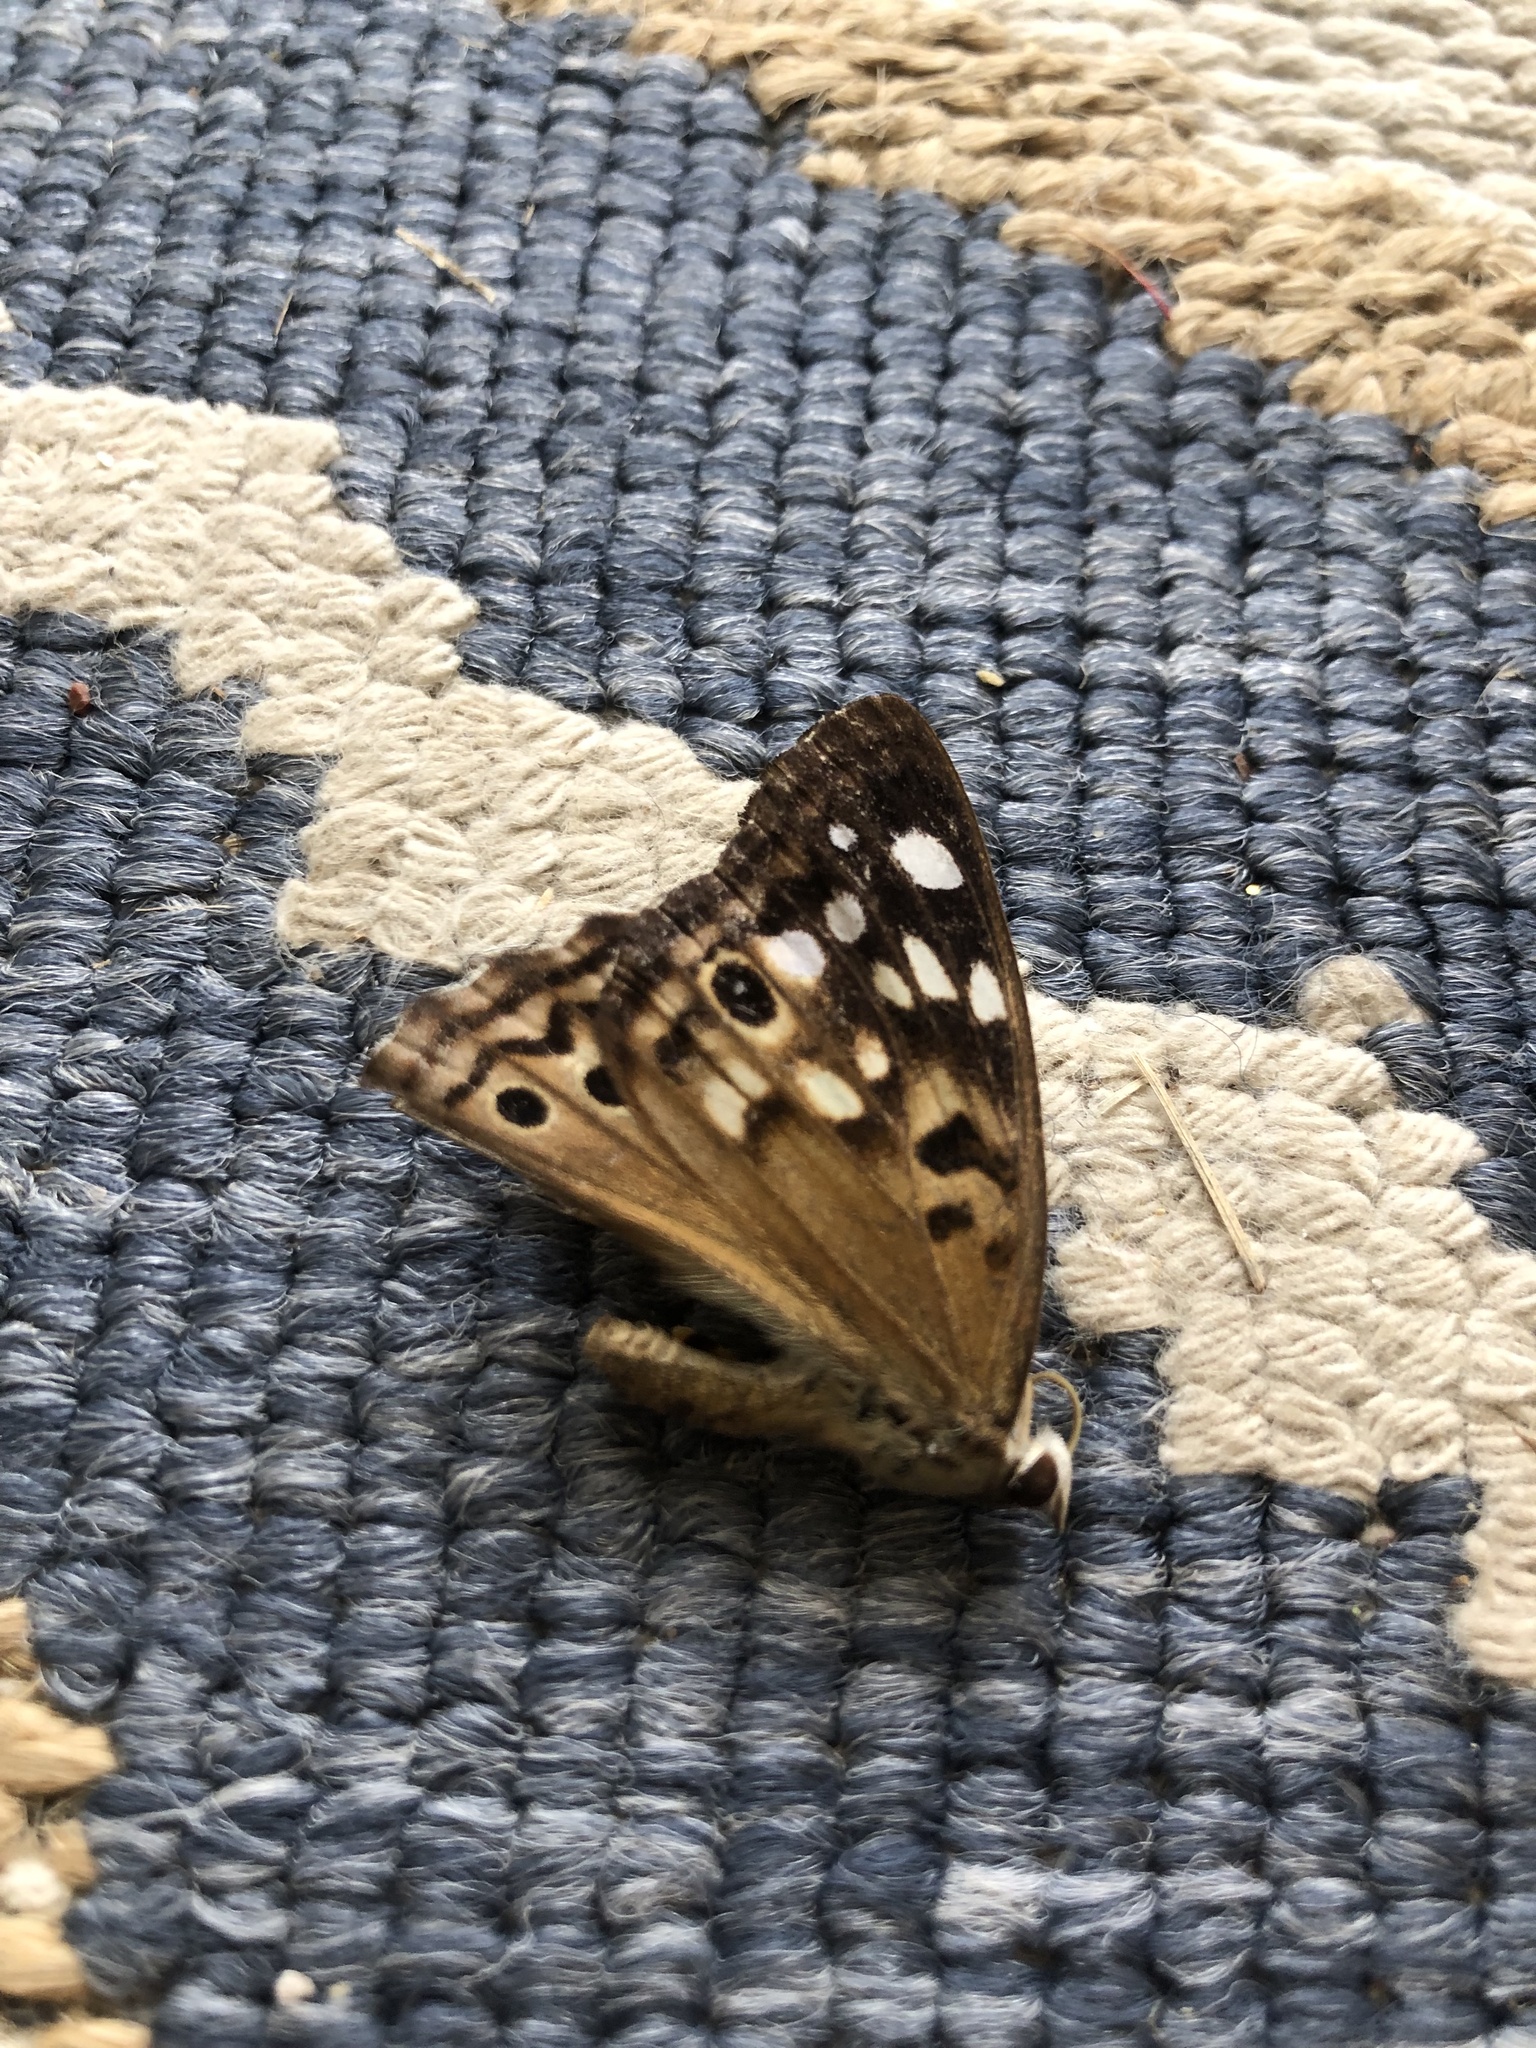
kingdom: Animalia
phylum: Arthropoda
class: Insecta
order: Lepidoptera
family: Nymphalidae
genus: Asterocampa
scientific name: Asterocampa celtis
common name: Hackberry emperor
